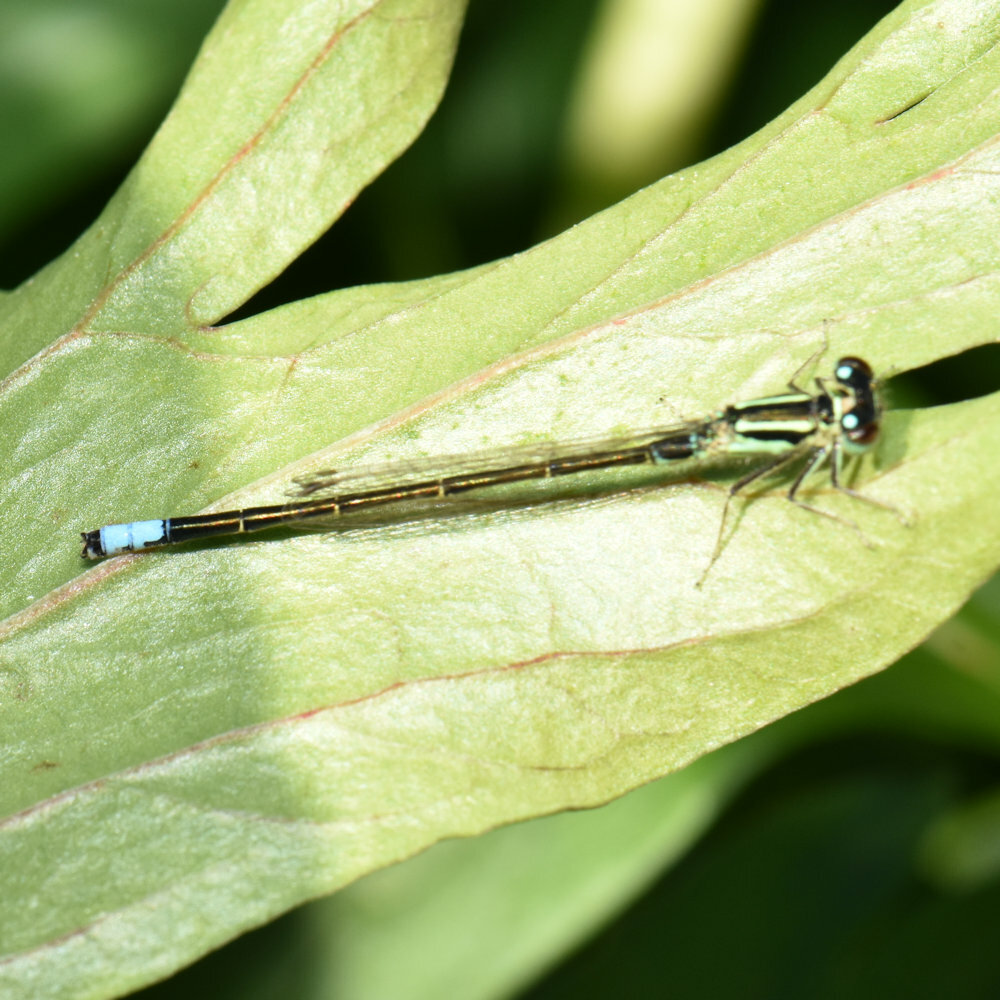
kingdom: Animalia
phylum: Arthropoda
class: Insecta
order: Odonata
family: Coenagrionidae
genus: Ischnura
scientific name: Ischnura verticalis
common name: Eastern forktail
